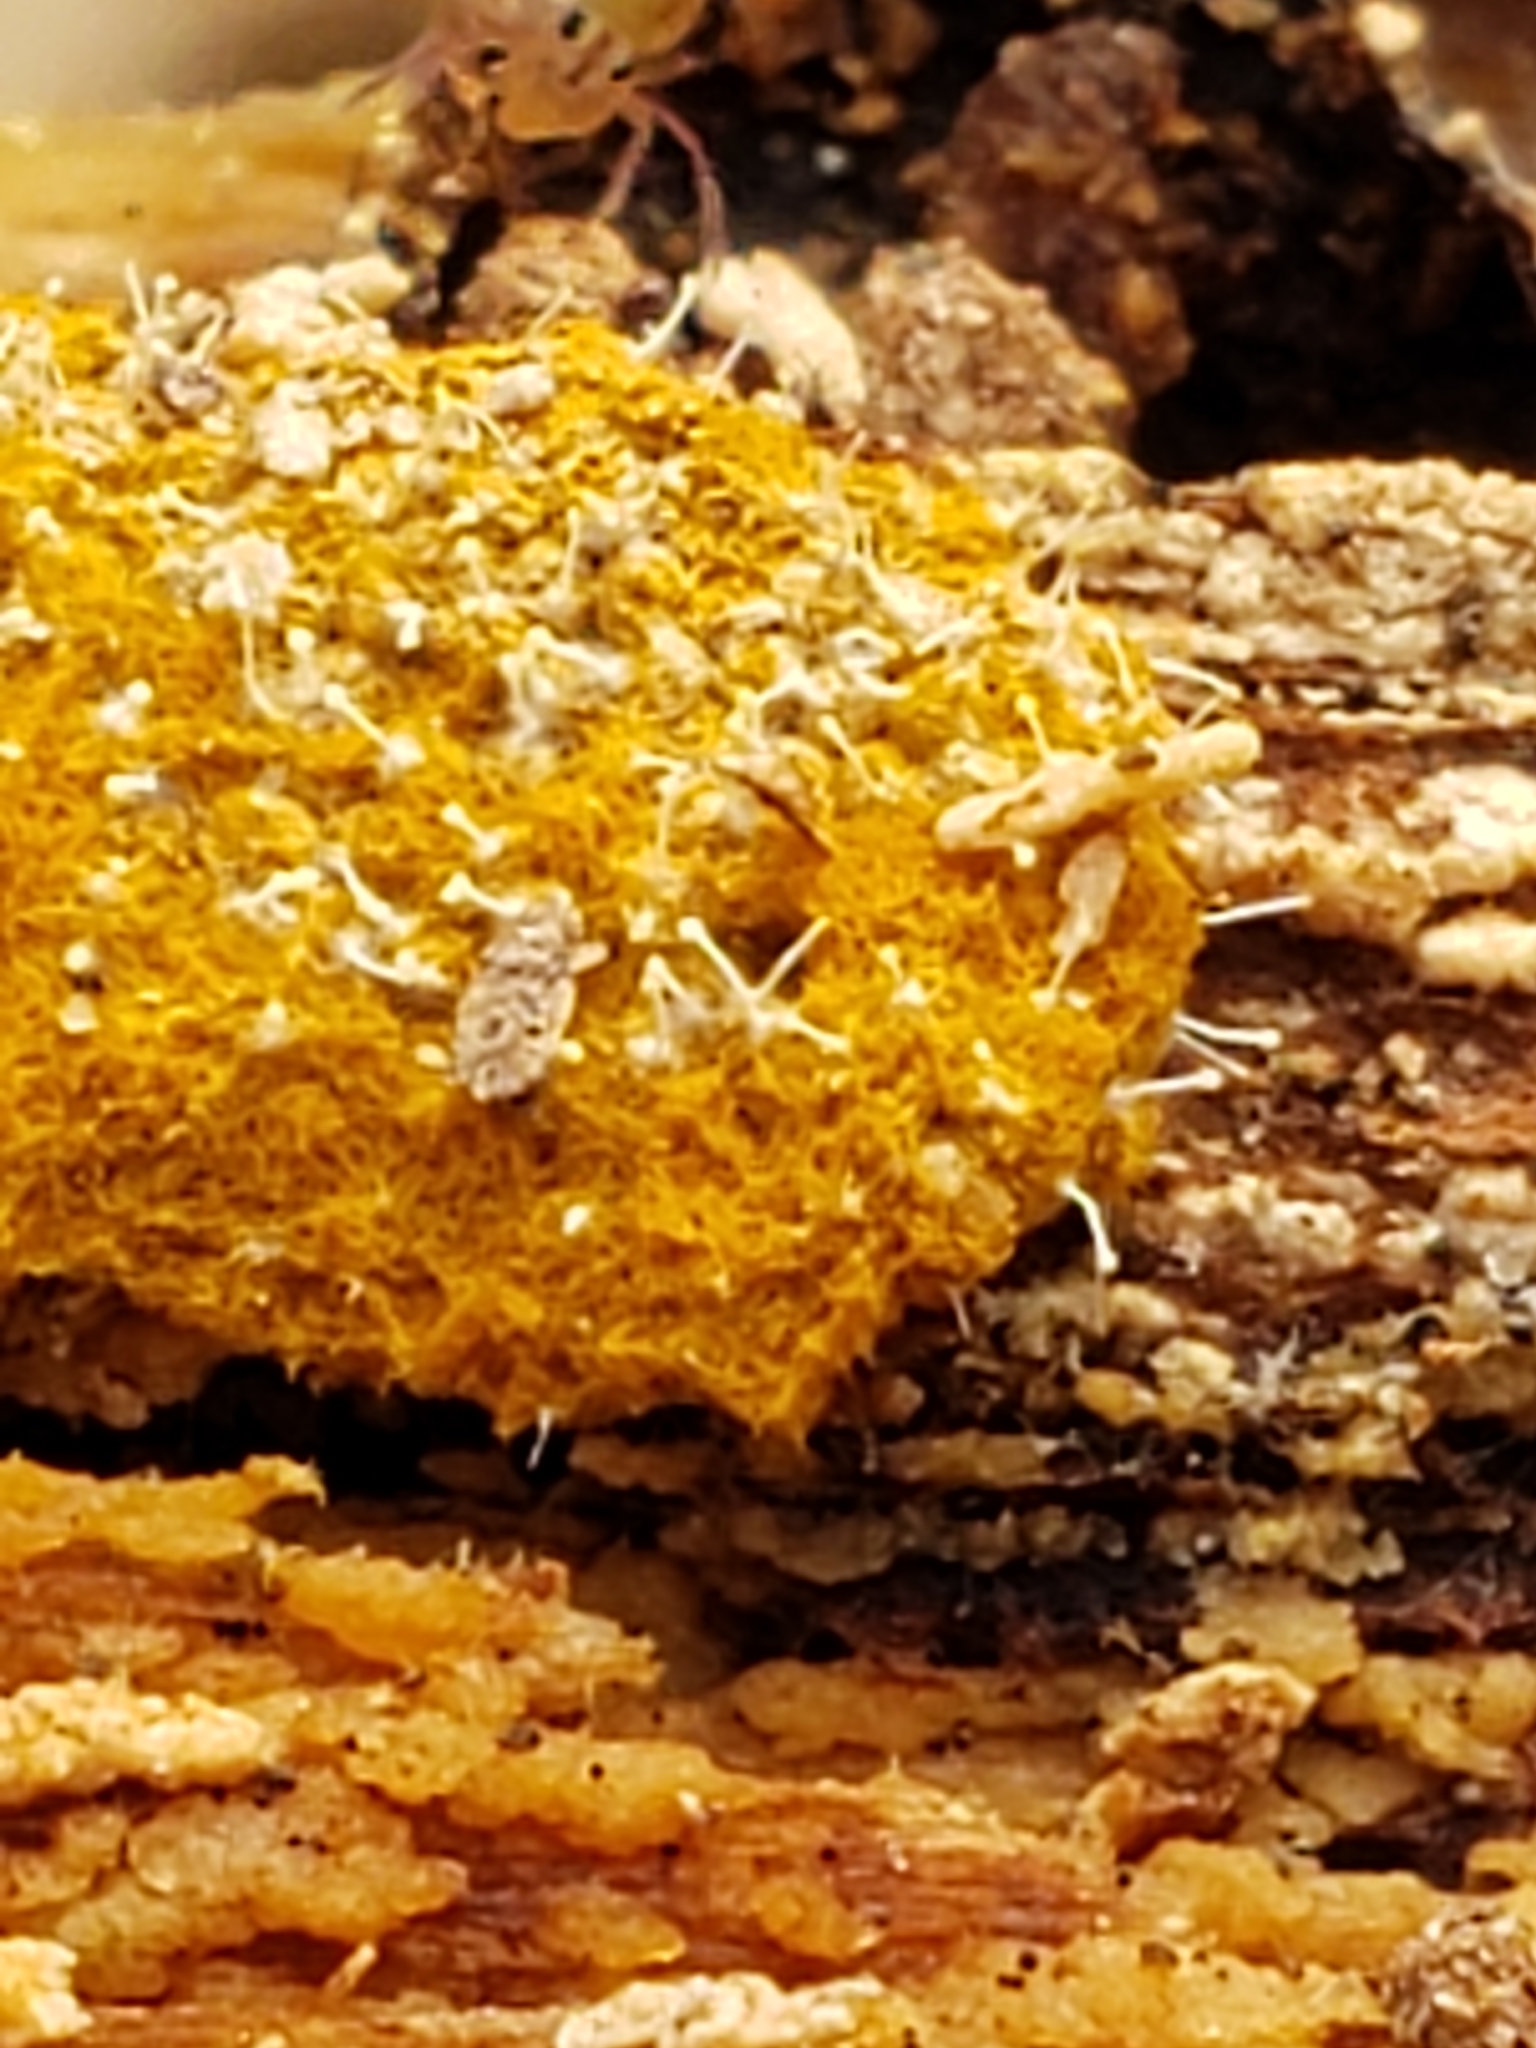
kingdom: Fungi
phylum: Ascomycota
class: Sordariomycetes
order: Hypocreales
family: Ophiocordycipitaceae
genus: Polycephalomyces
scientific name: Polycephalomyces tomentosus
